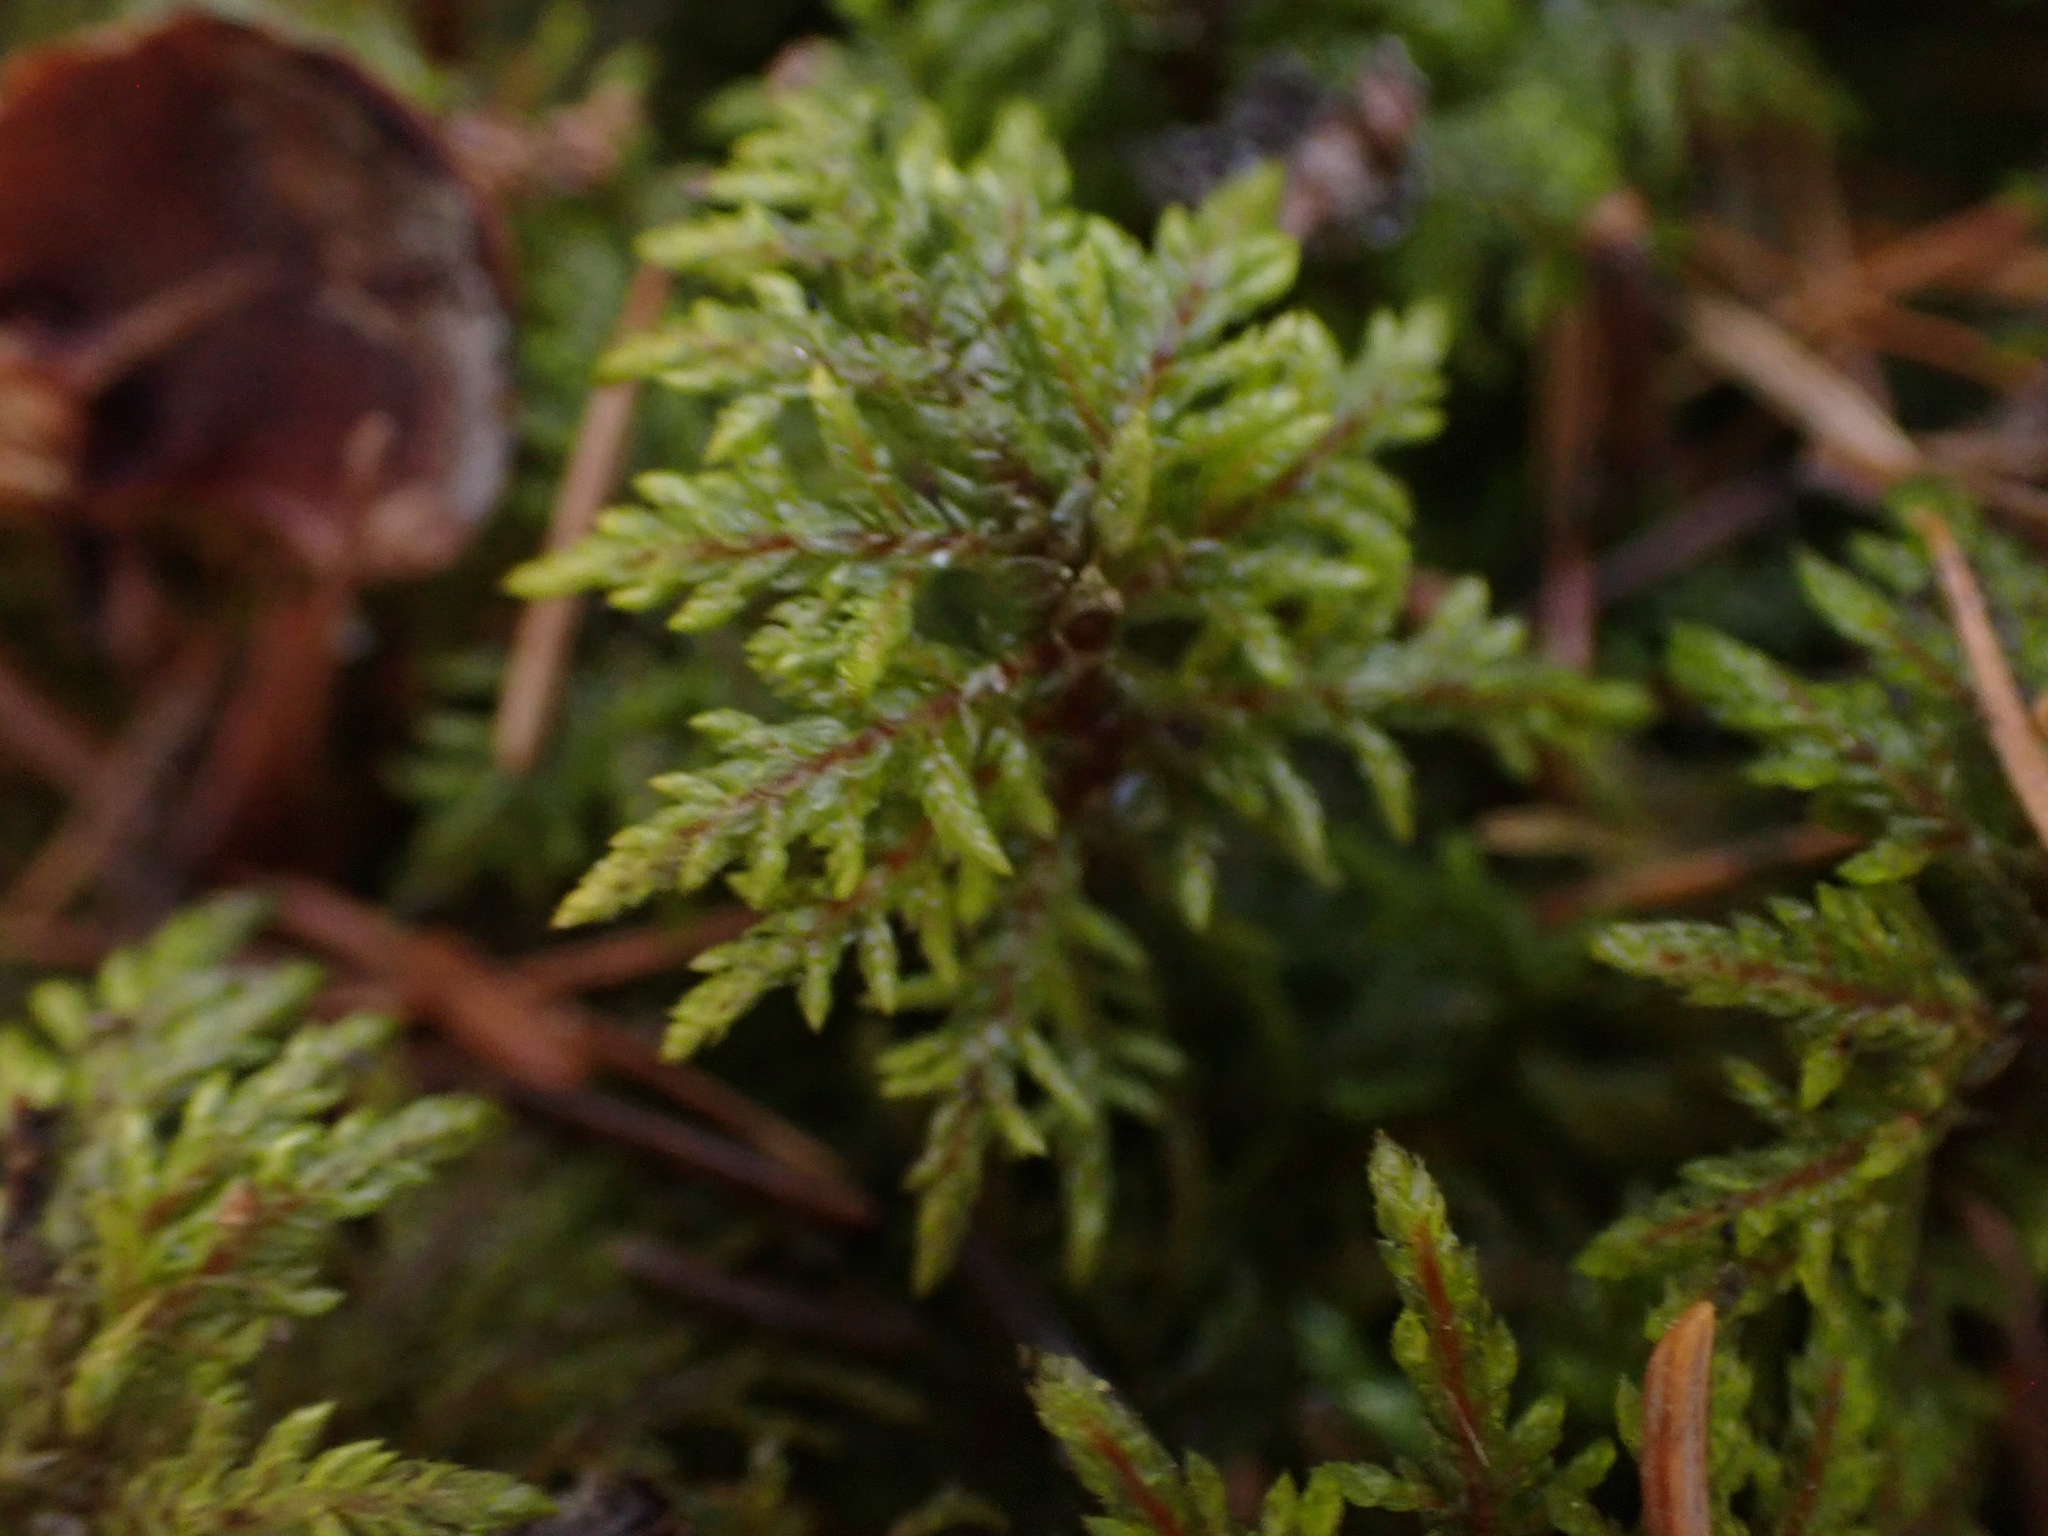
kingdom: Plantae
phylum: Bryophyta
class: Bryopsida
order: Hypnales
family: Hylocomiaceae
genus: Hylocomium
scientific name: Hylocomium splendens
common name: Stairstep moss
